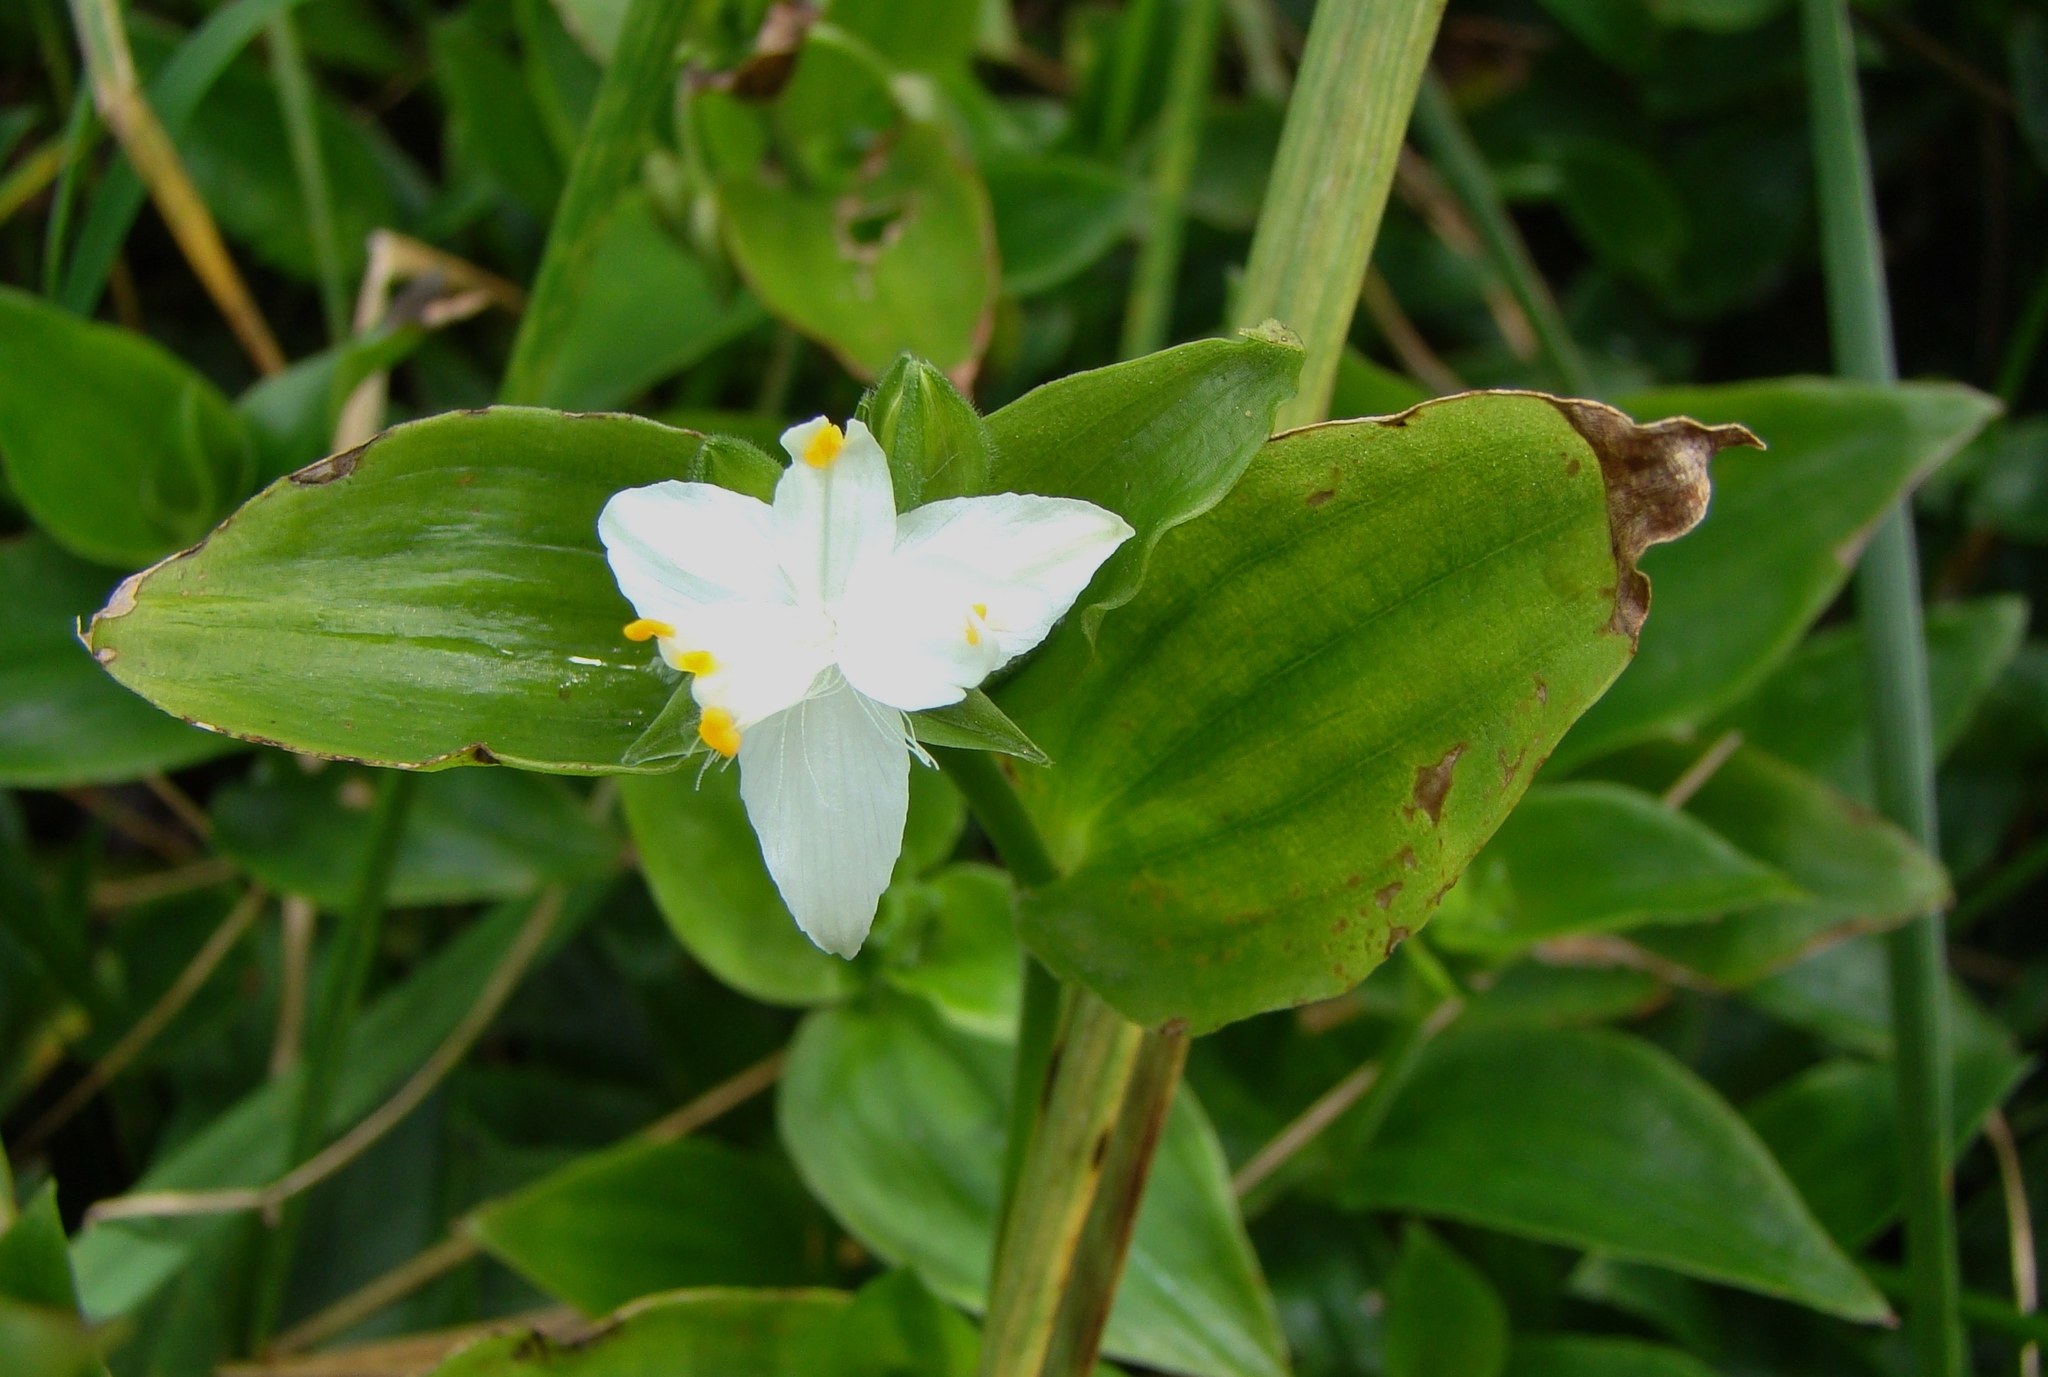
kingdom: Plantae
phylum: Tracheophyta
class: Liliopsida
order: Commelinales
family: Commelinaceae
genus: Tradescantia
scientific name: Tradescantia fluminensis
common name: Wandering-jew
